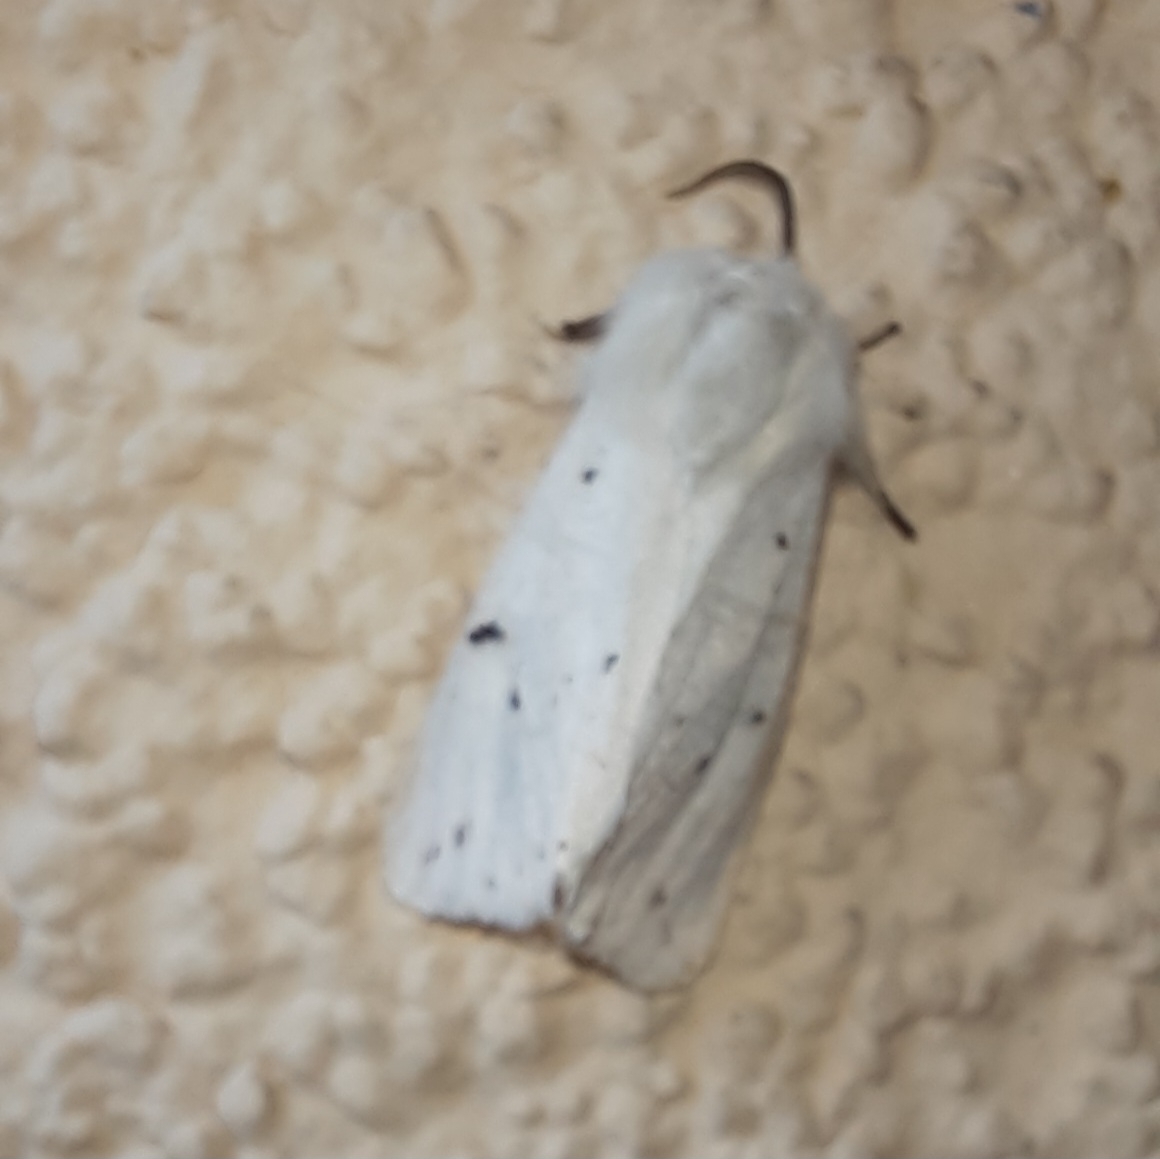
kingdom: Animalia
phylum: Arthropoda
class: Insecta
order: Lepidoptera
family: Erebidae
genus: Spilosoma
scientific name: Spilosoma lubricipeda
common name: White ermine
